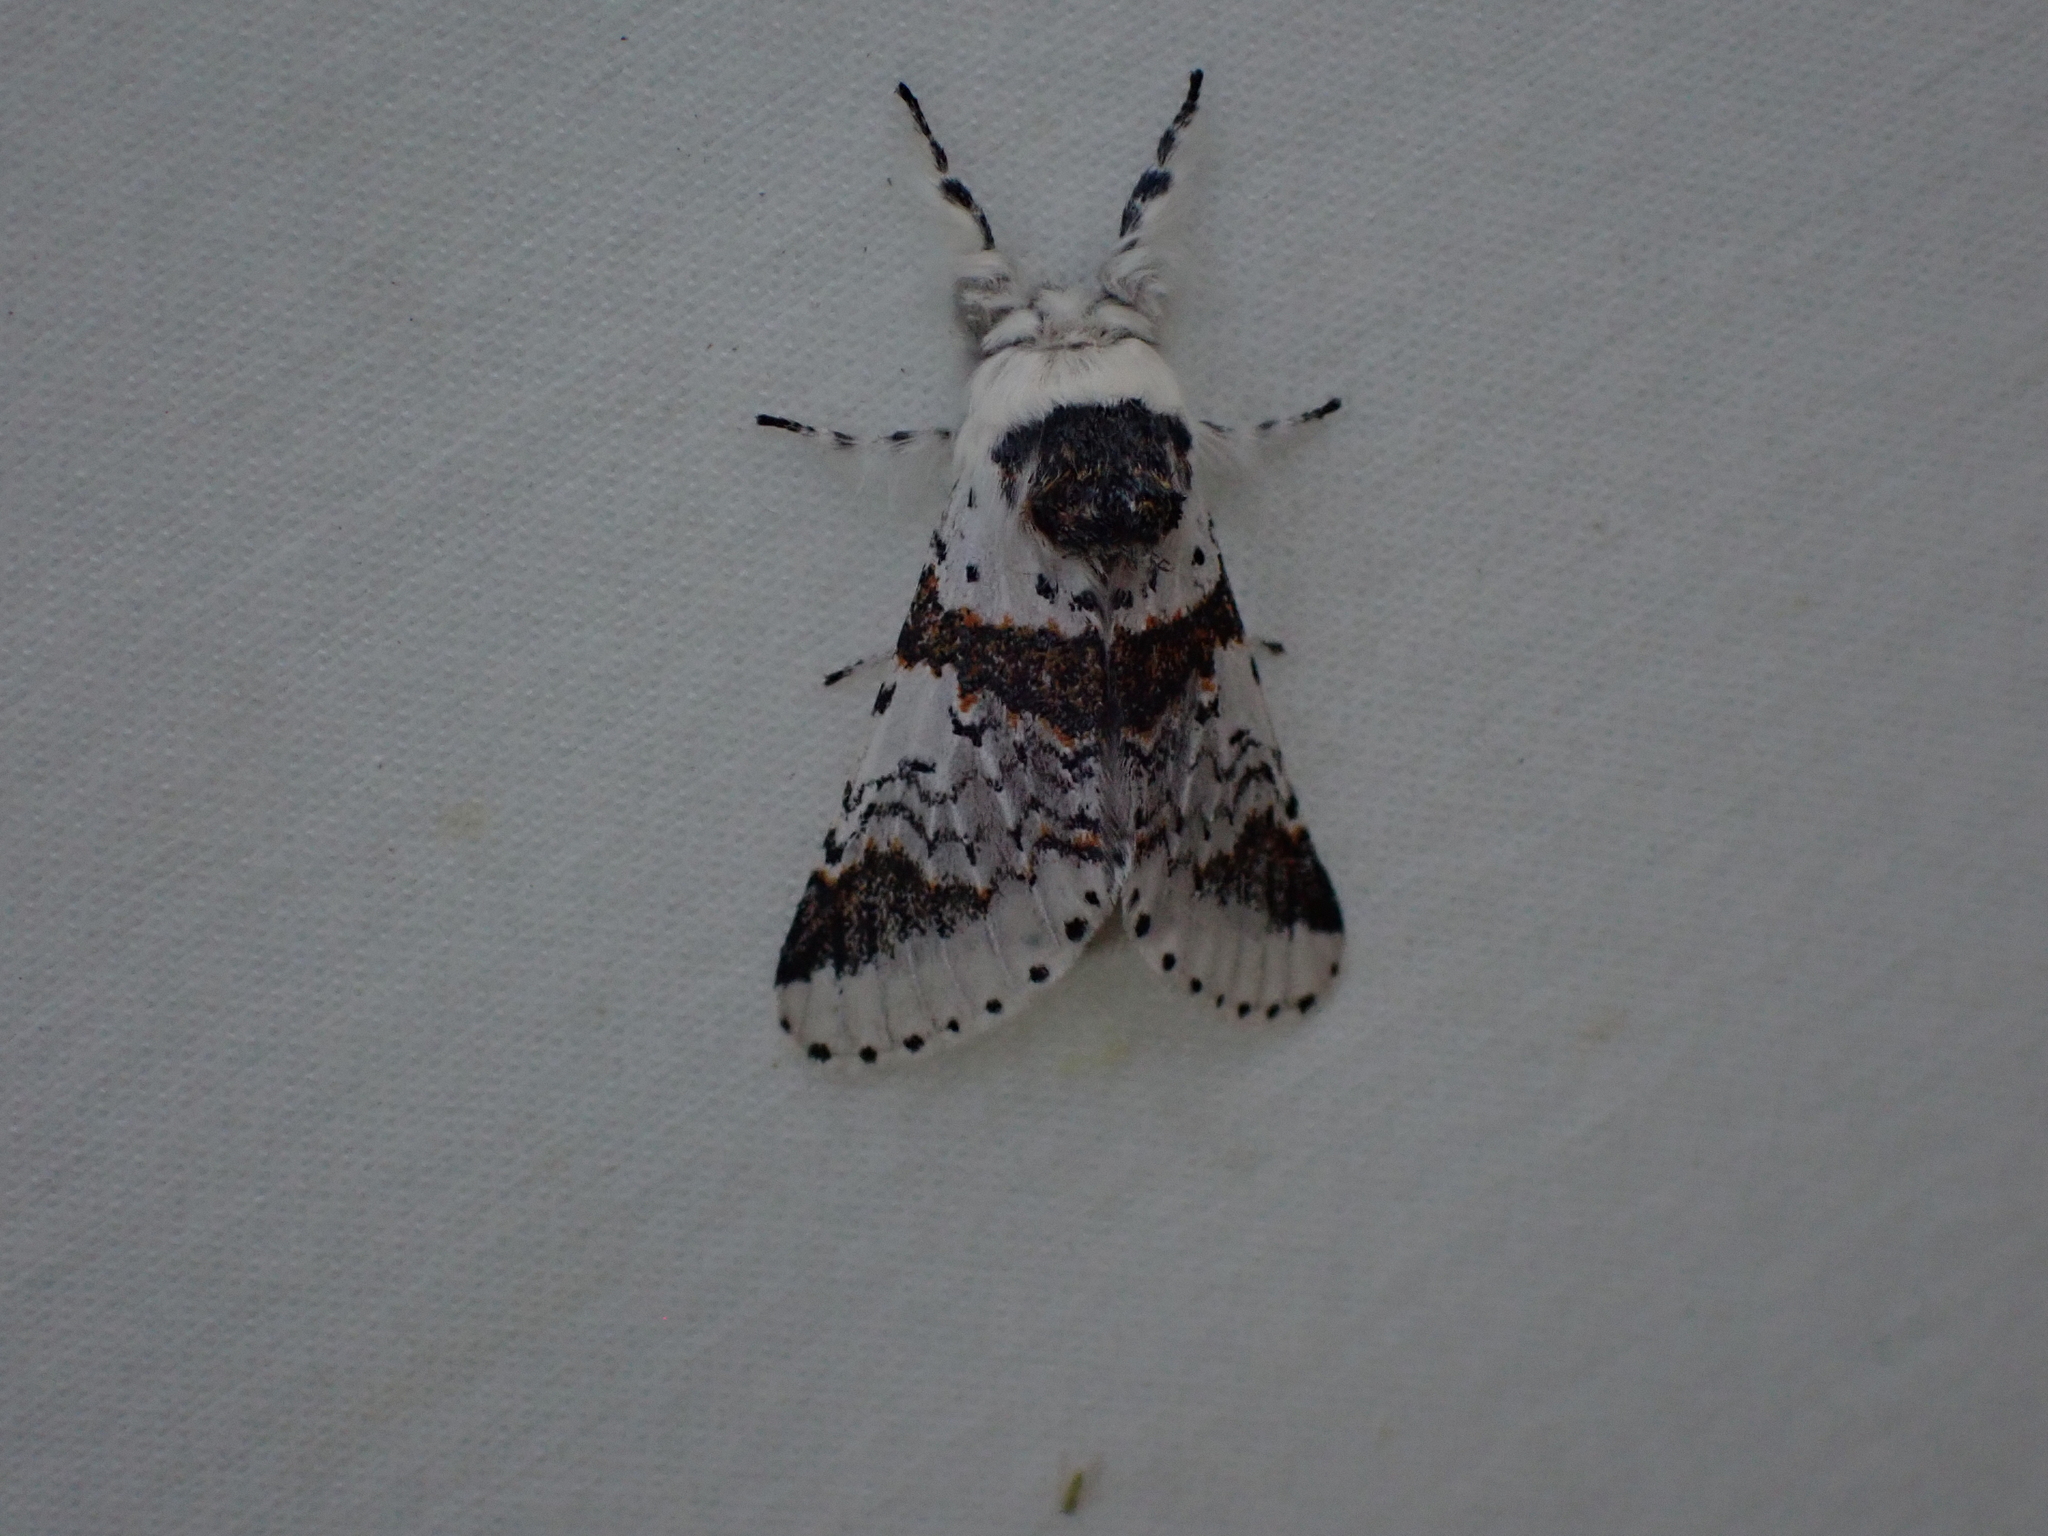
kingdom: Animalia
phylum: Arthropoda
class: Insecta
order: Lepidoptera
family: Notodontidae
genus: Furcula
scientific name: Furcula scolopendrina
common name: Zigzag furcula moth
